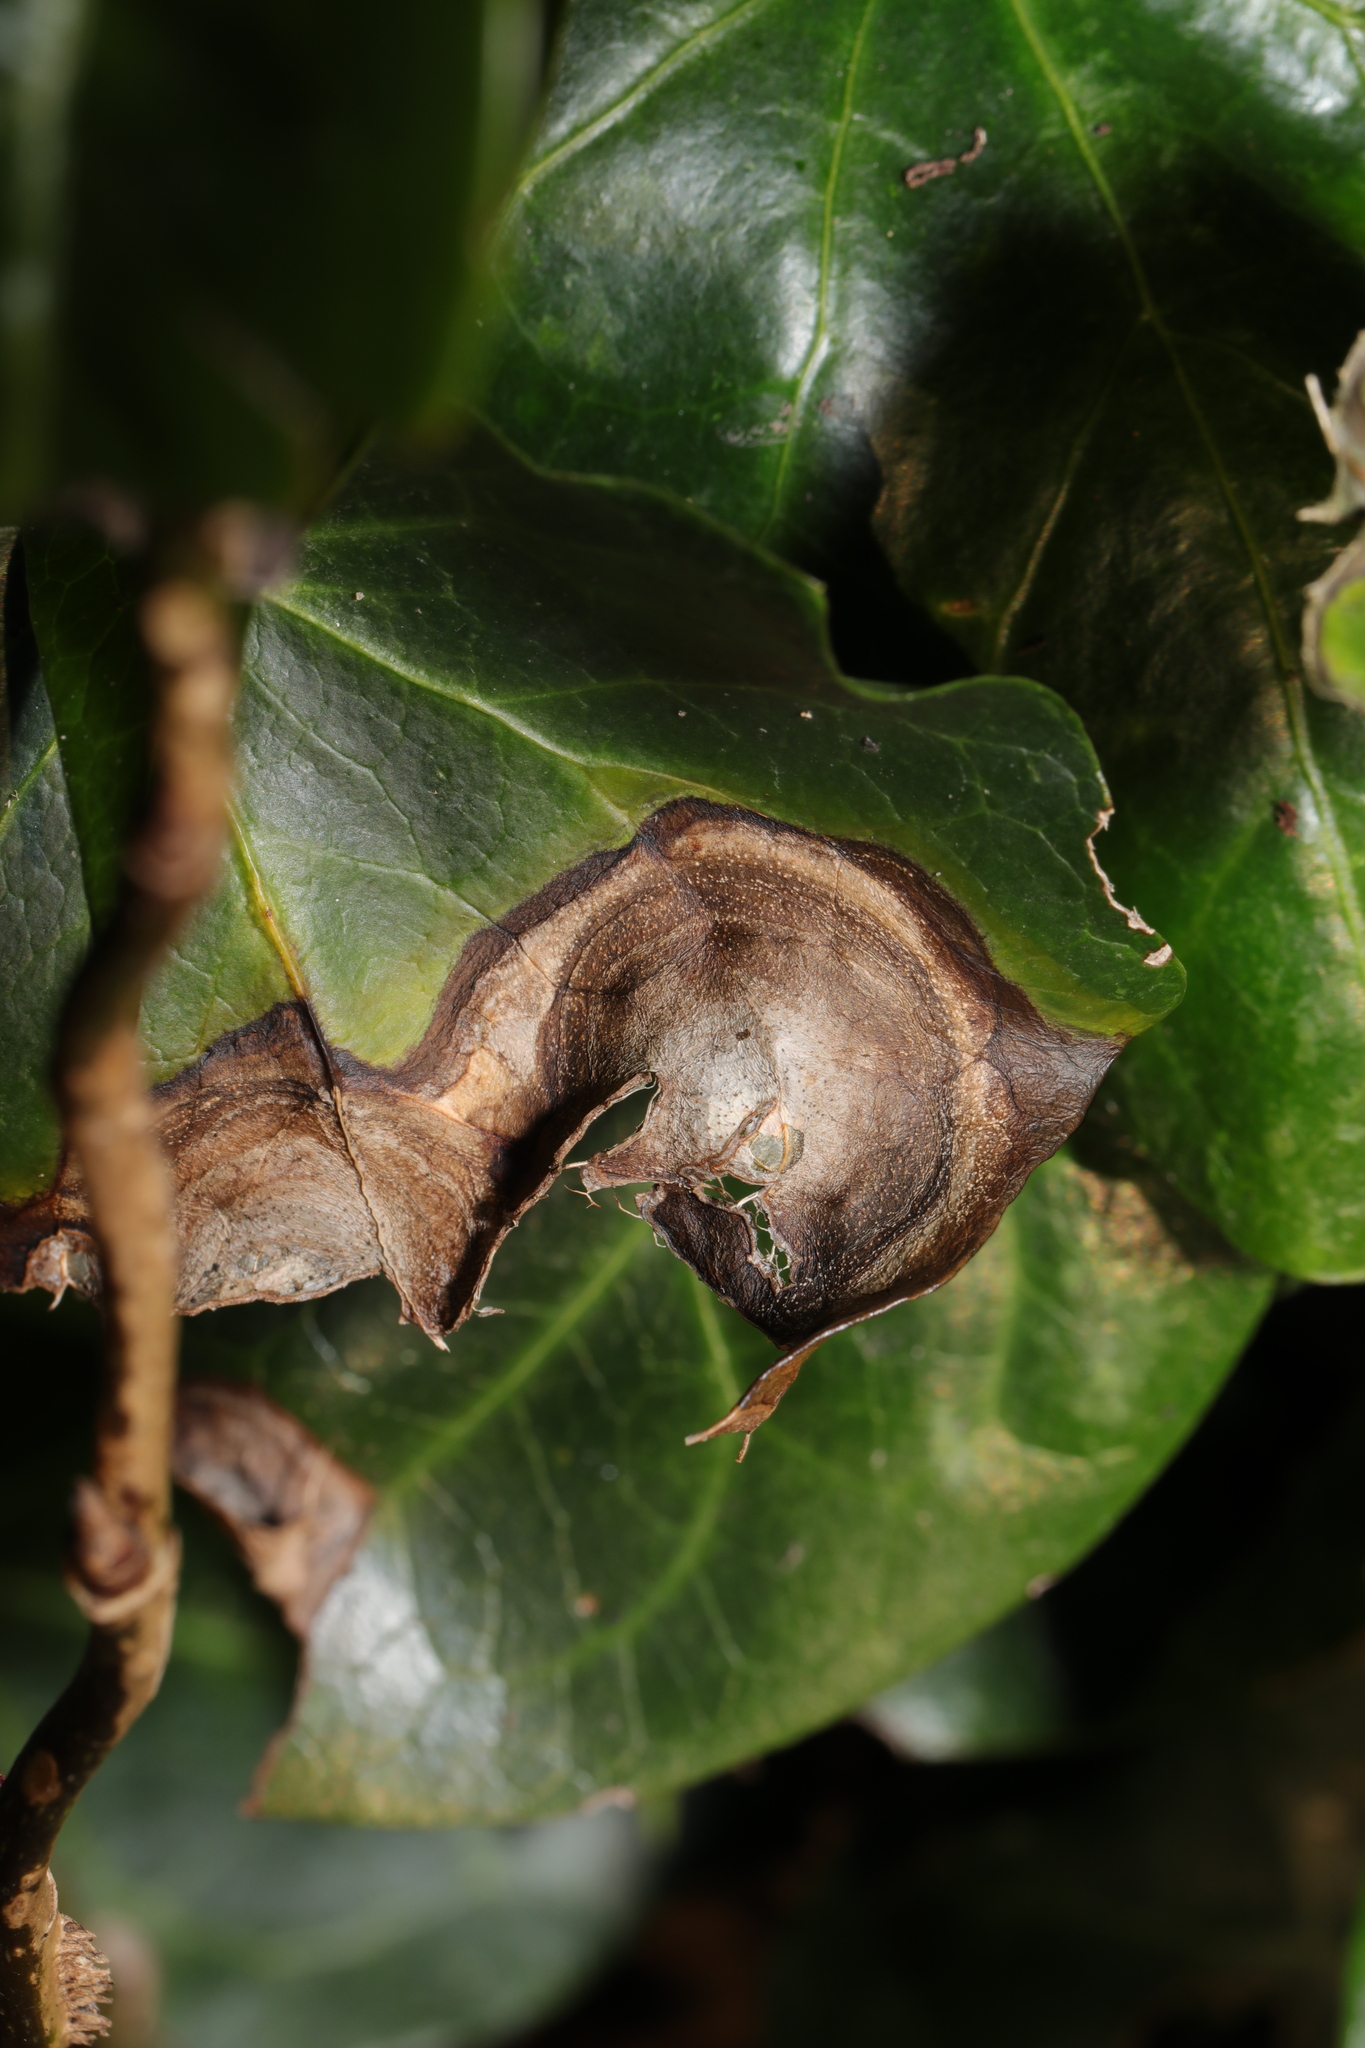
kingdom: Fungi
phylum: Ascomycota
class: Dothideomycetes
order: Pleosporales
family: Didymellaceae
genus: Boeremia
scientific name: Boeremia hedericola
